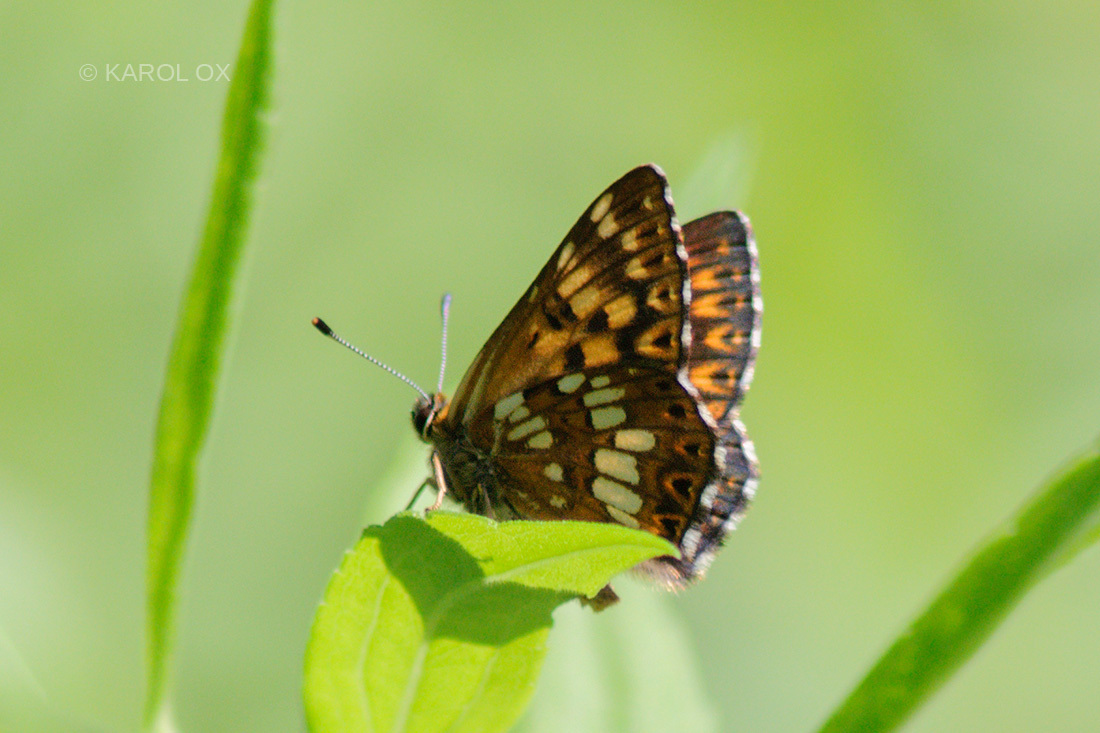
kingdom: Animalia
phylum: Arthropoda
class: Insecta
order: Lepidoptera
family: Riodinidae
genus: Hamearis
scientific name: Hamearis lucina
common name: Duke of burgundy fritillary
